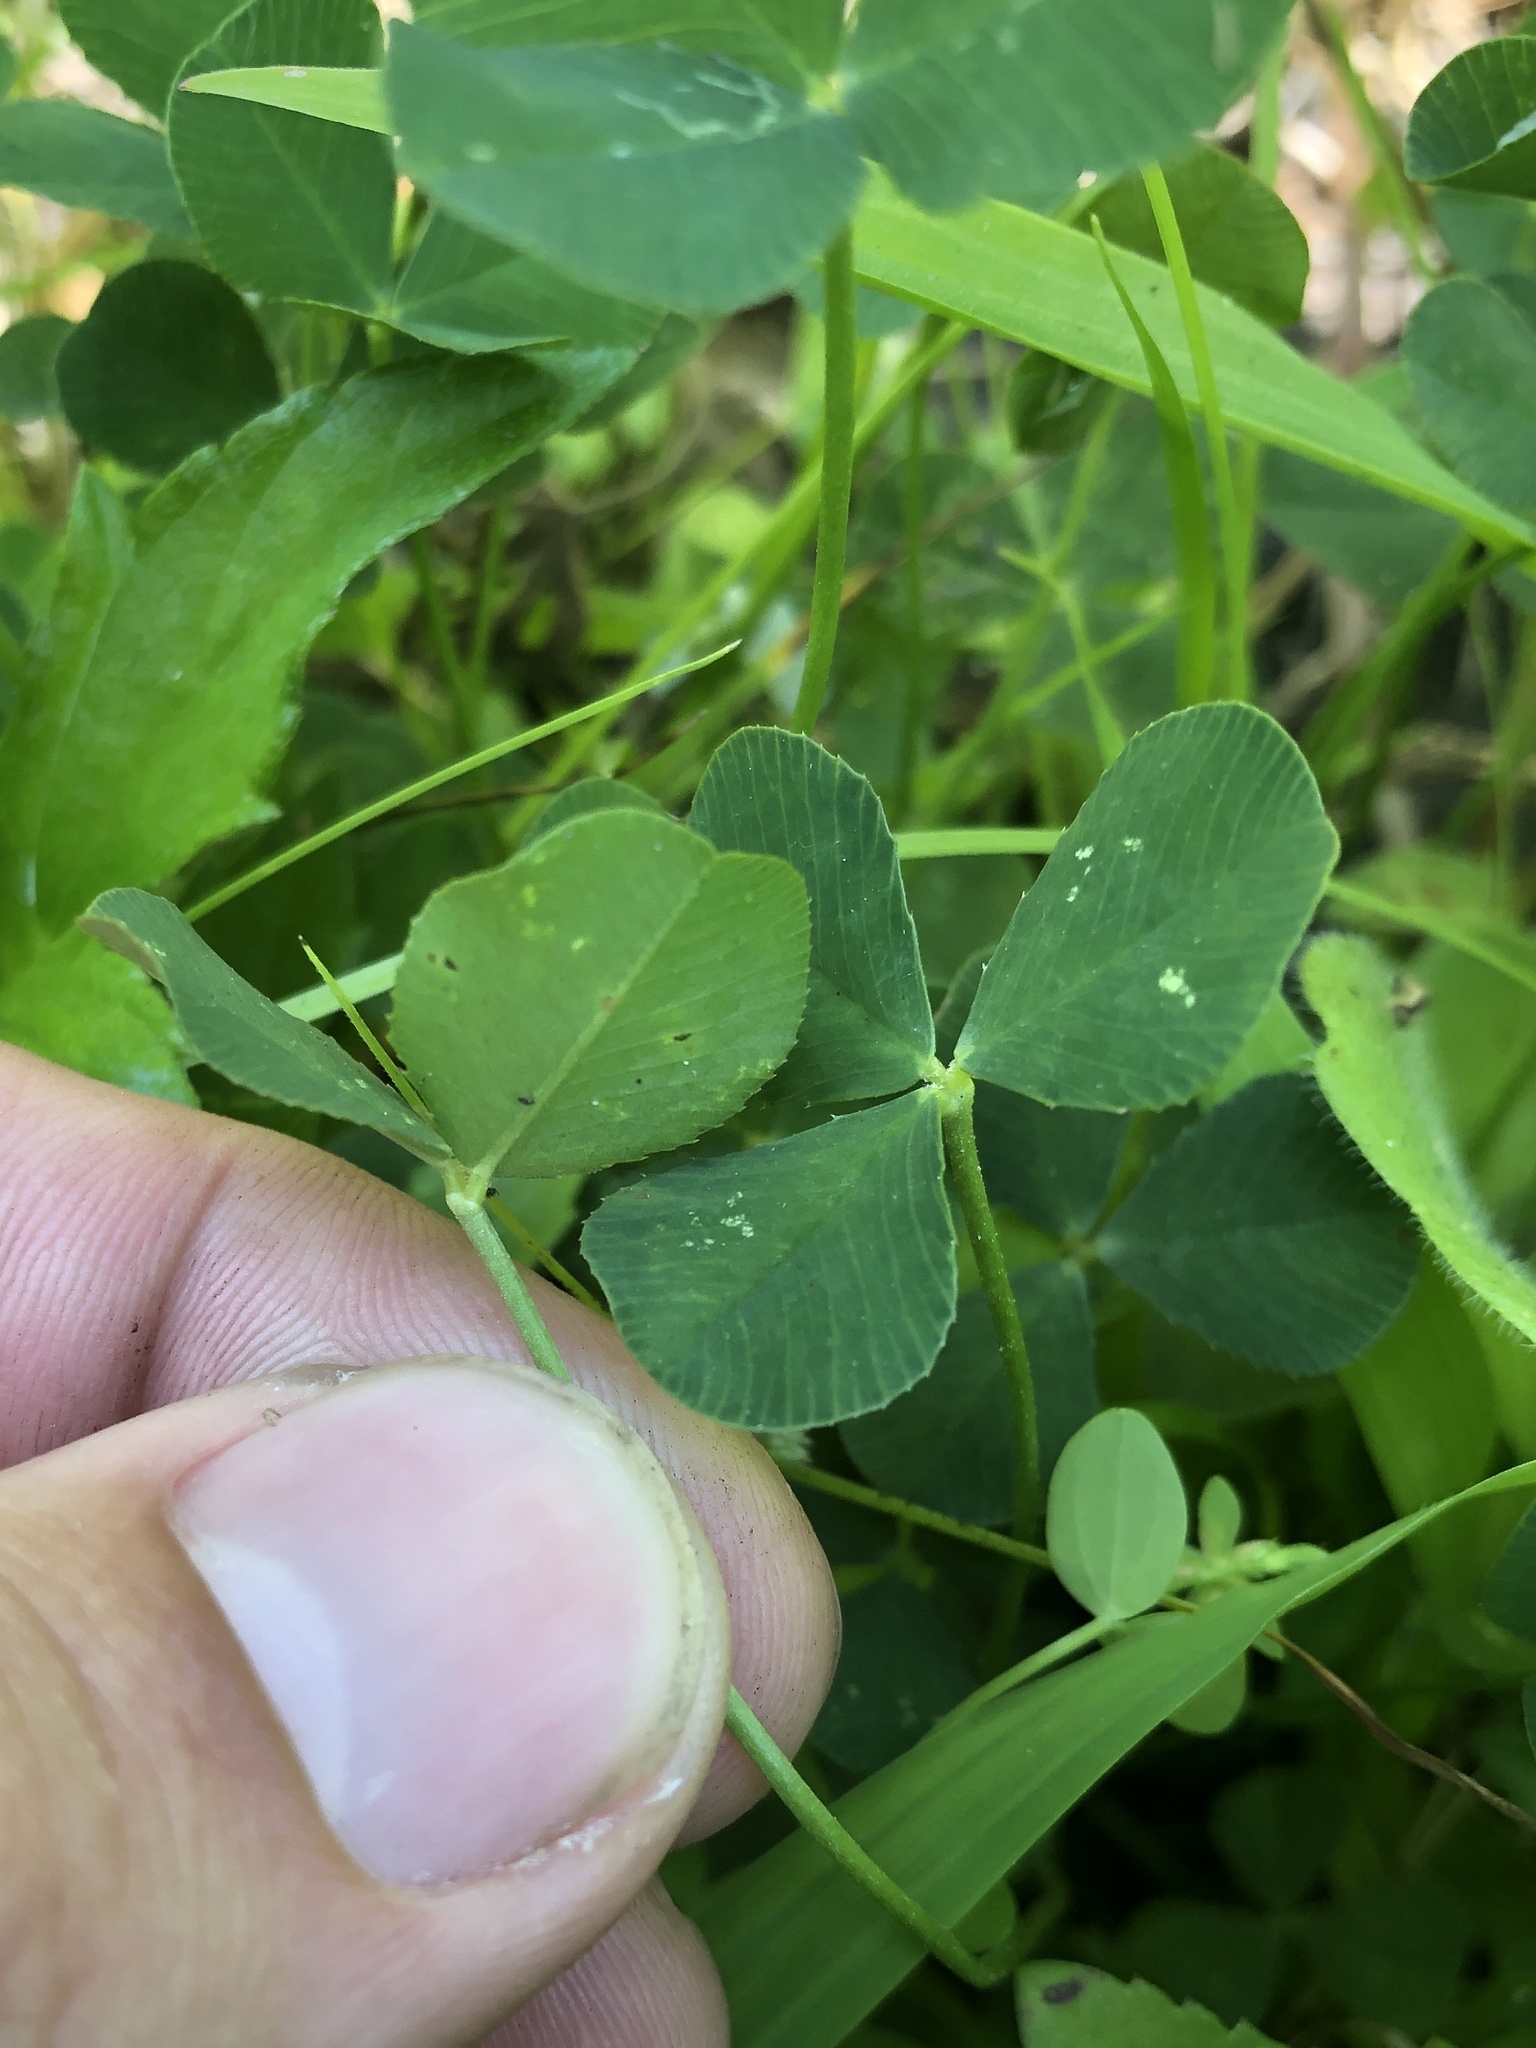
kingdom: Plantae
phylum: Tracheophyta
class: Magnoliopsida
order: Fabales
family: Fabaceae
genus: Trifolium
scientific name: Trifolium repens
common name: White clover
